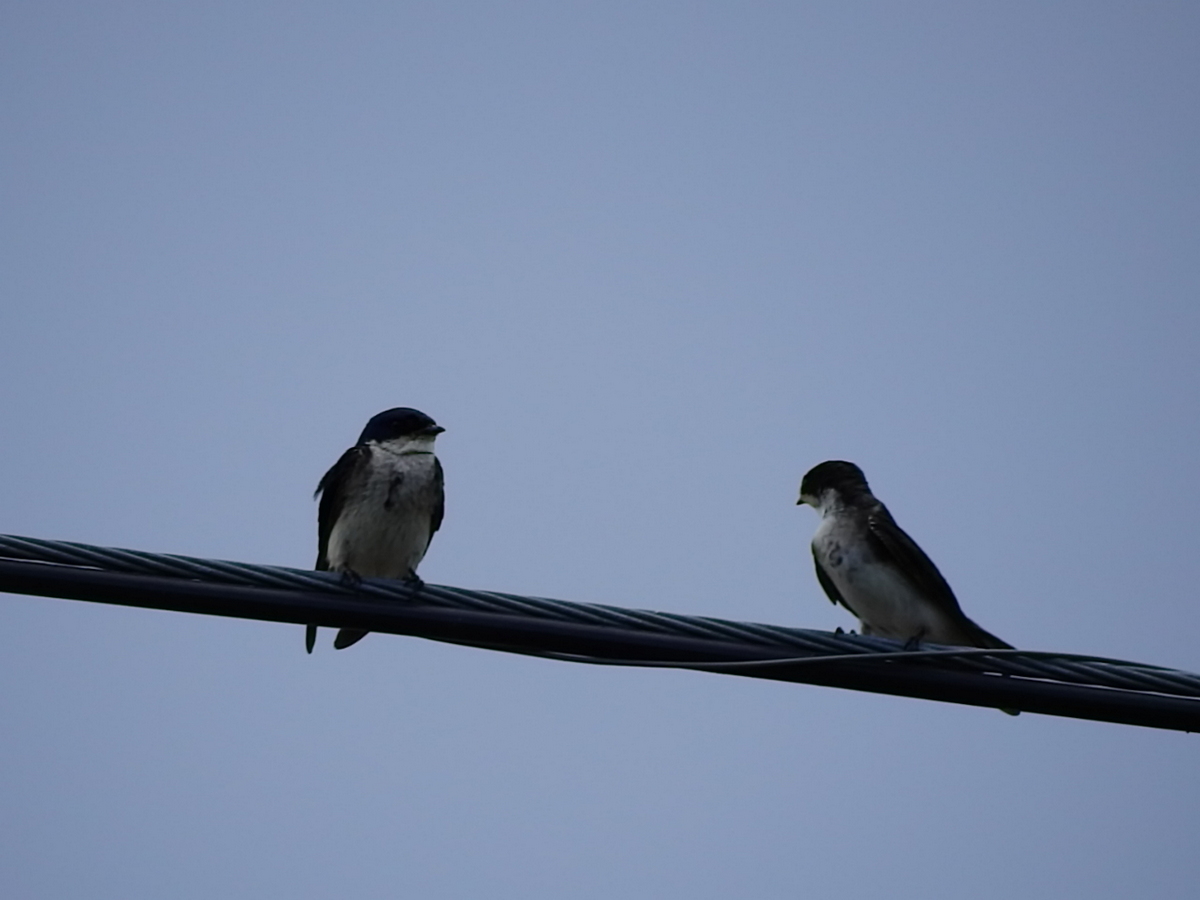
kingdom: Animalia
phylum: Chordata
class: Aves
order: Passeriformes
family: Hirundinidae
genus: Notiochelidon
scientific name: Notiochelidon cyanoleuca
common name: Blue-and-white swallow
